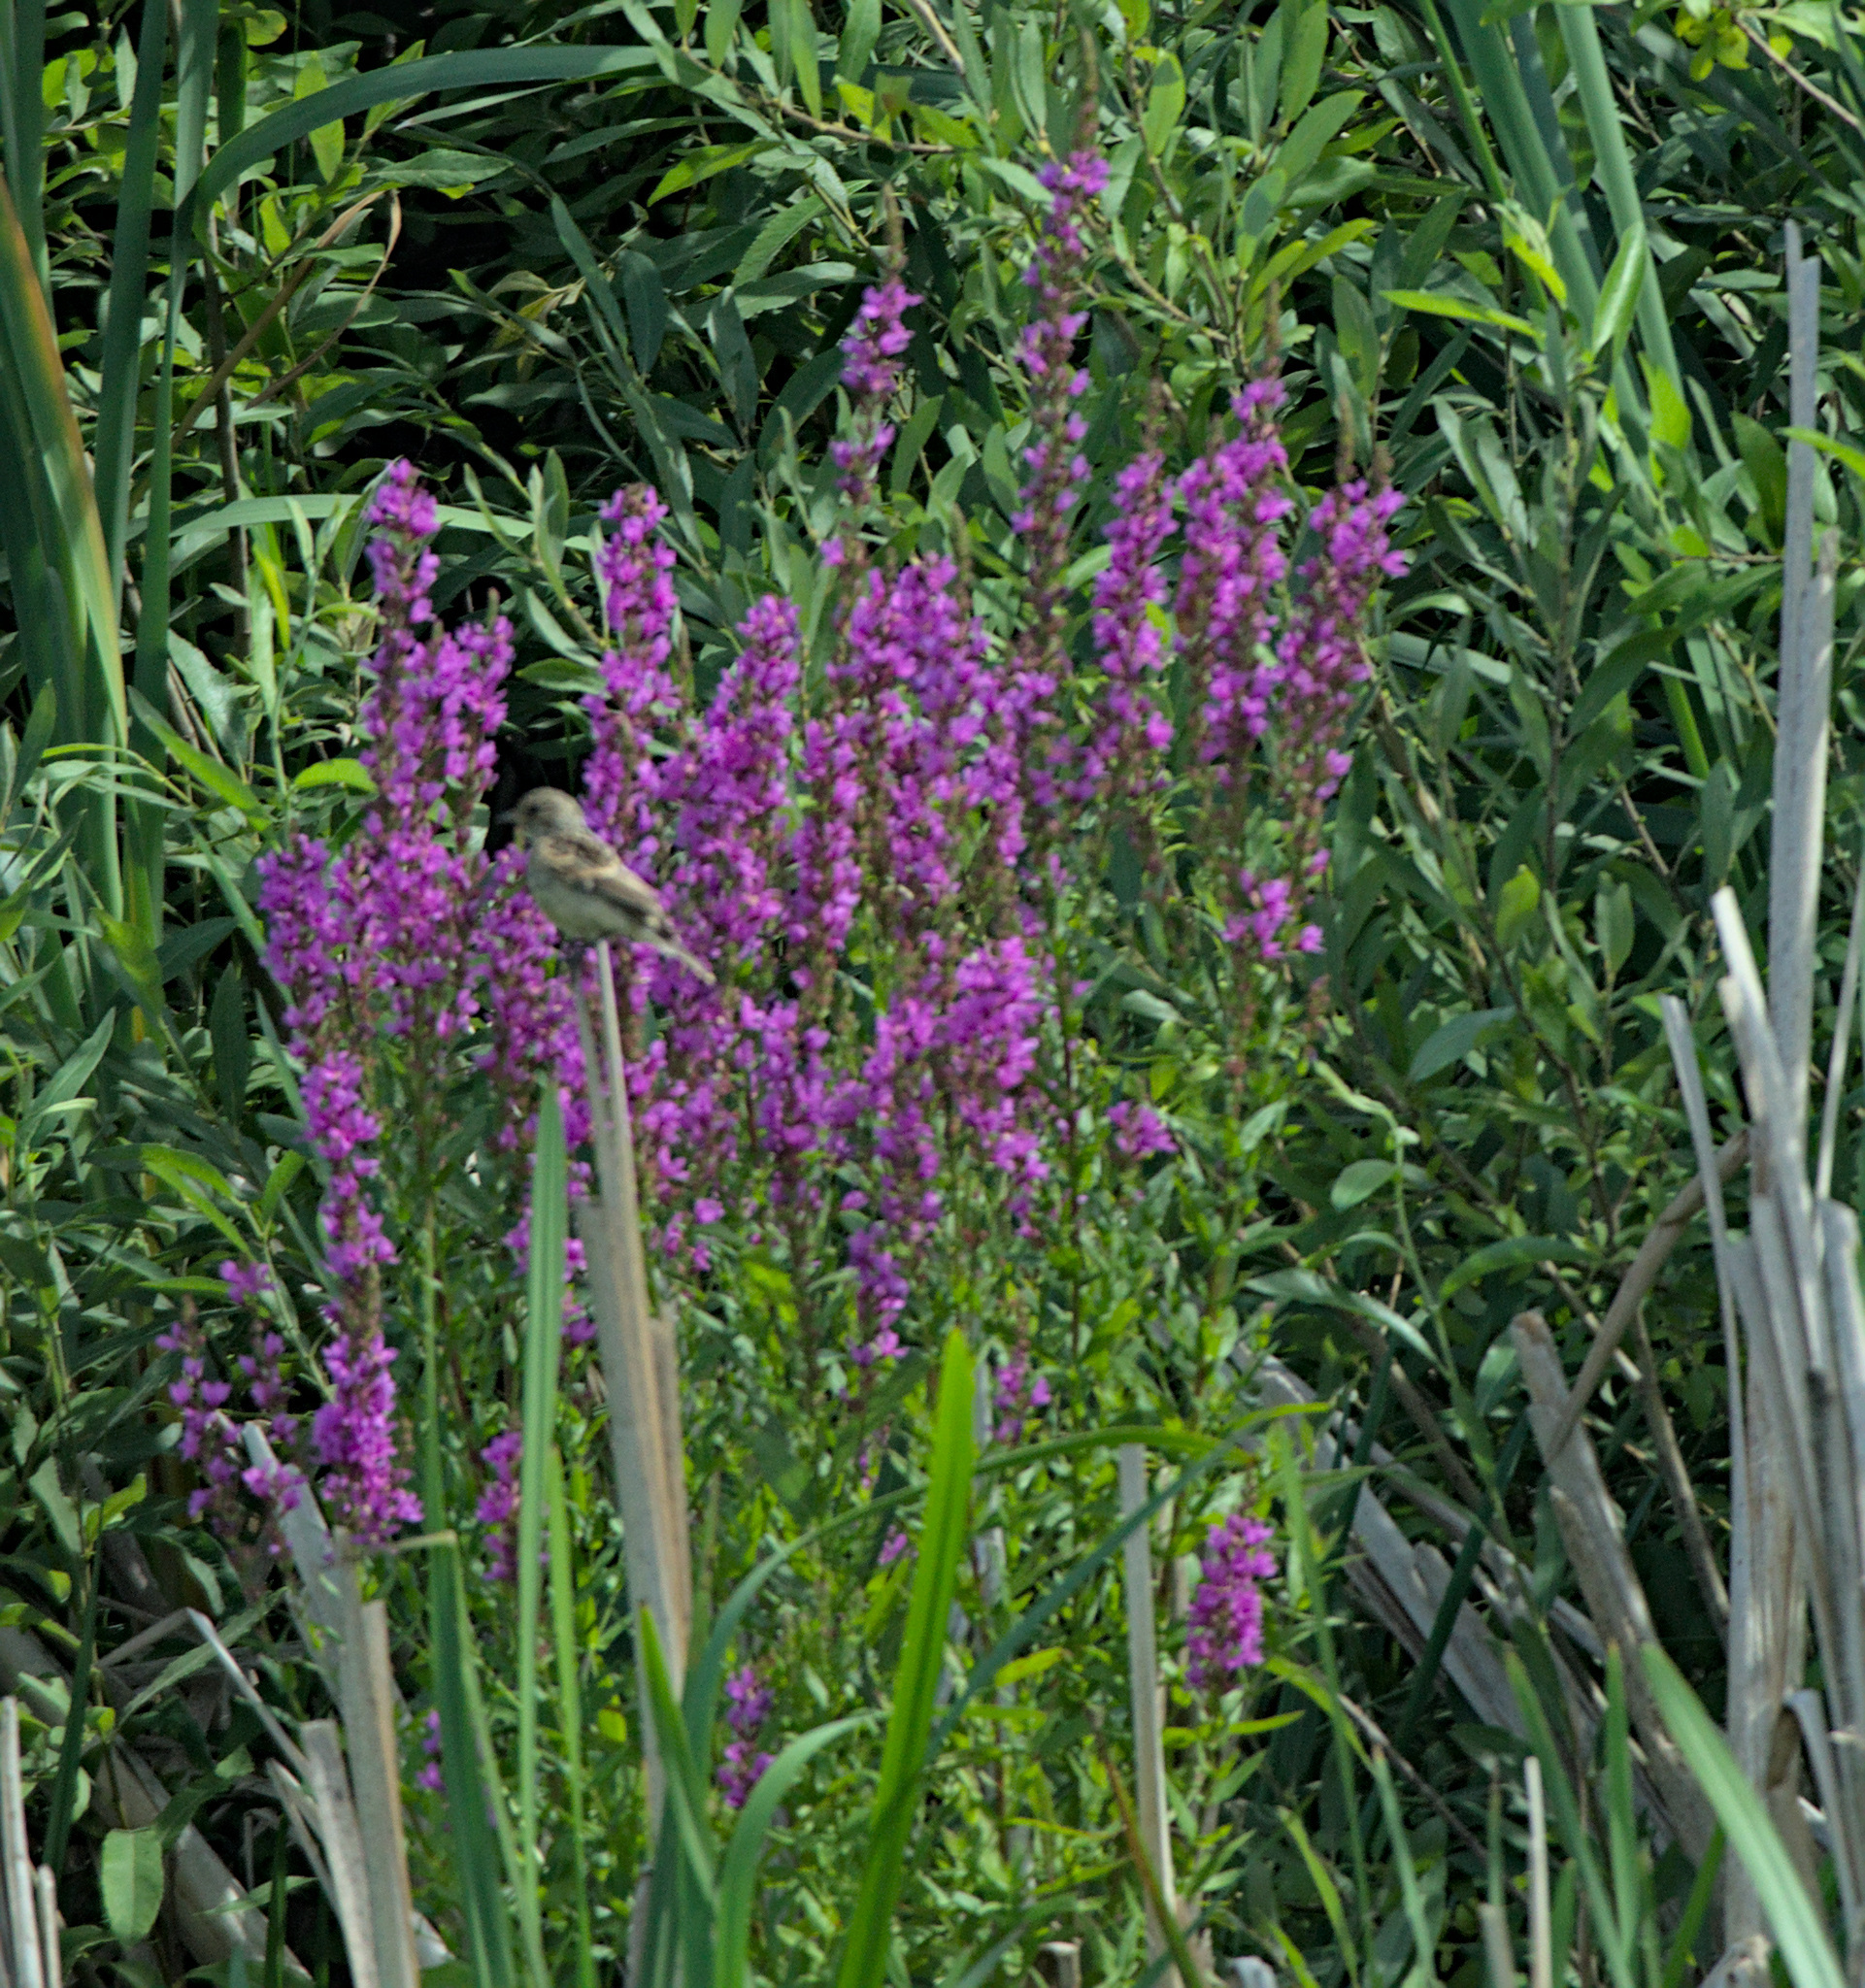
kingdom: Plantae
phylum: Tracheophyta
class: Magnoliopsida
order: Myrtales
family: Lythraceae
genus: Lythrum
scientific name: Lythrum salicaria
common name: Purple loosestrife
